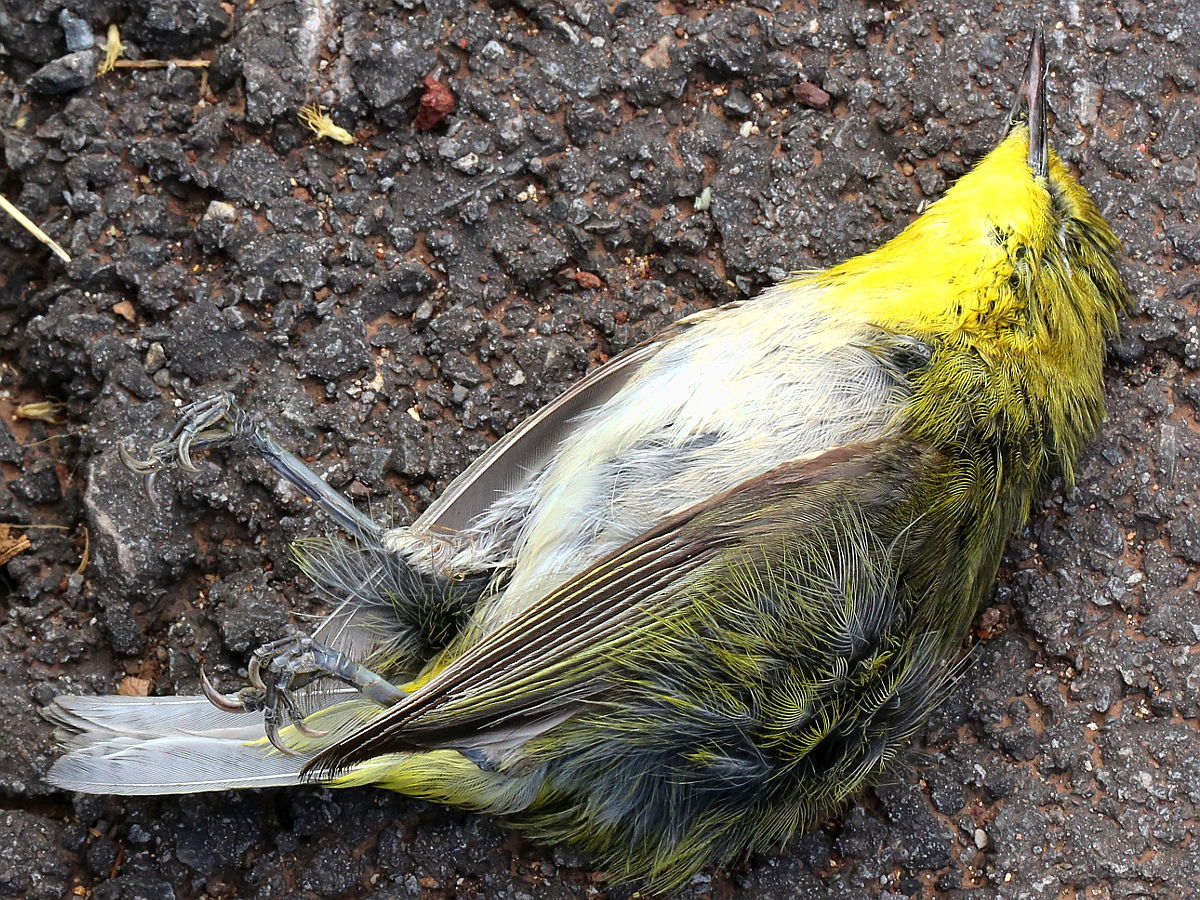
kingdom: Animalia
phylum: Chordata
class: Aves
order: Passeriformes
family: Zosteropidae
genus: Zosterops
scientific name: Zosterops japonicus
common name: Japanese white-eye
